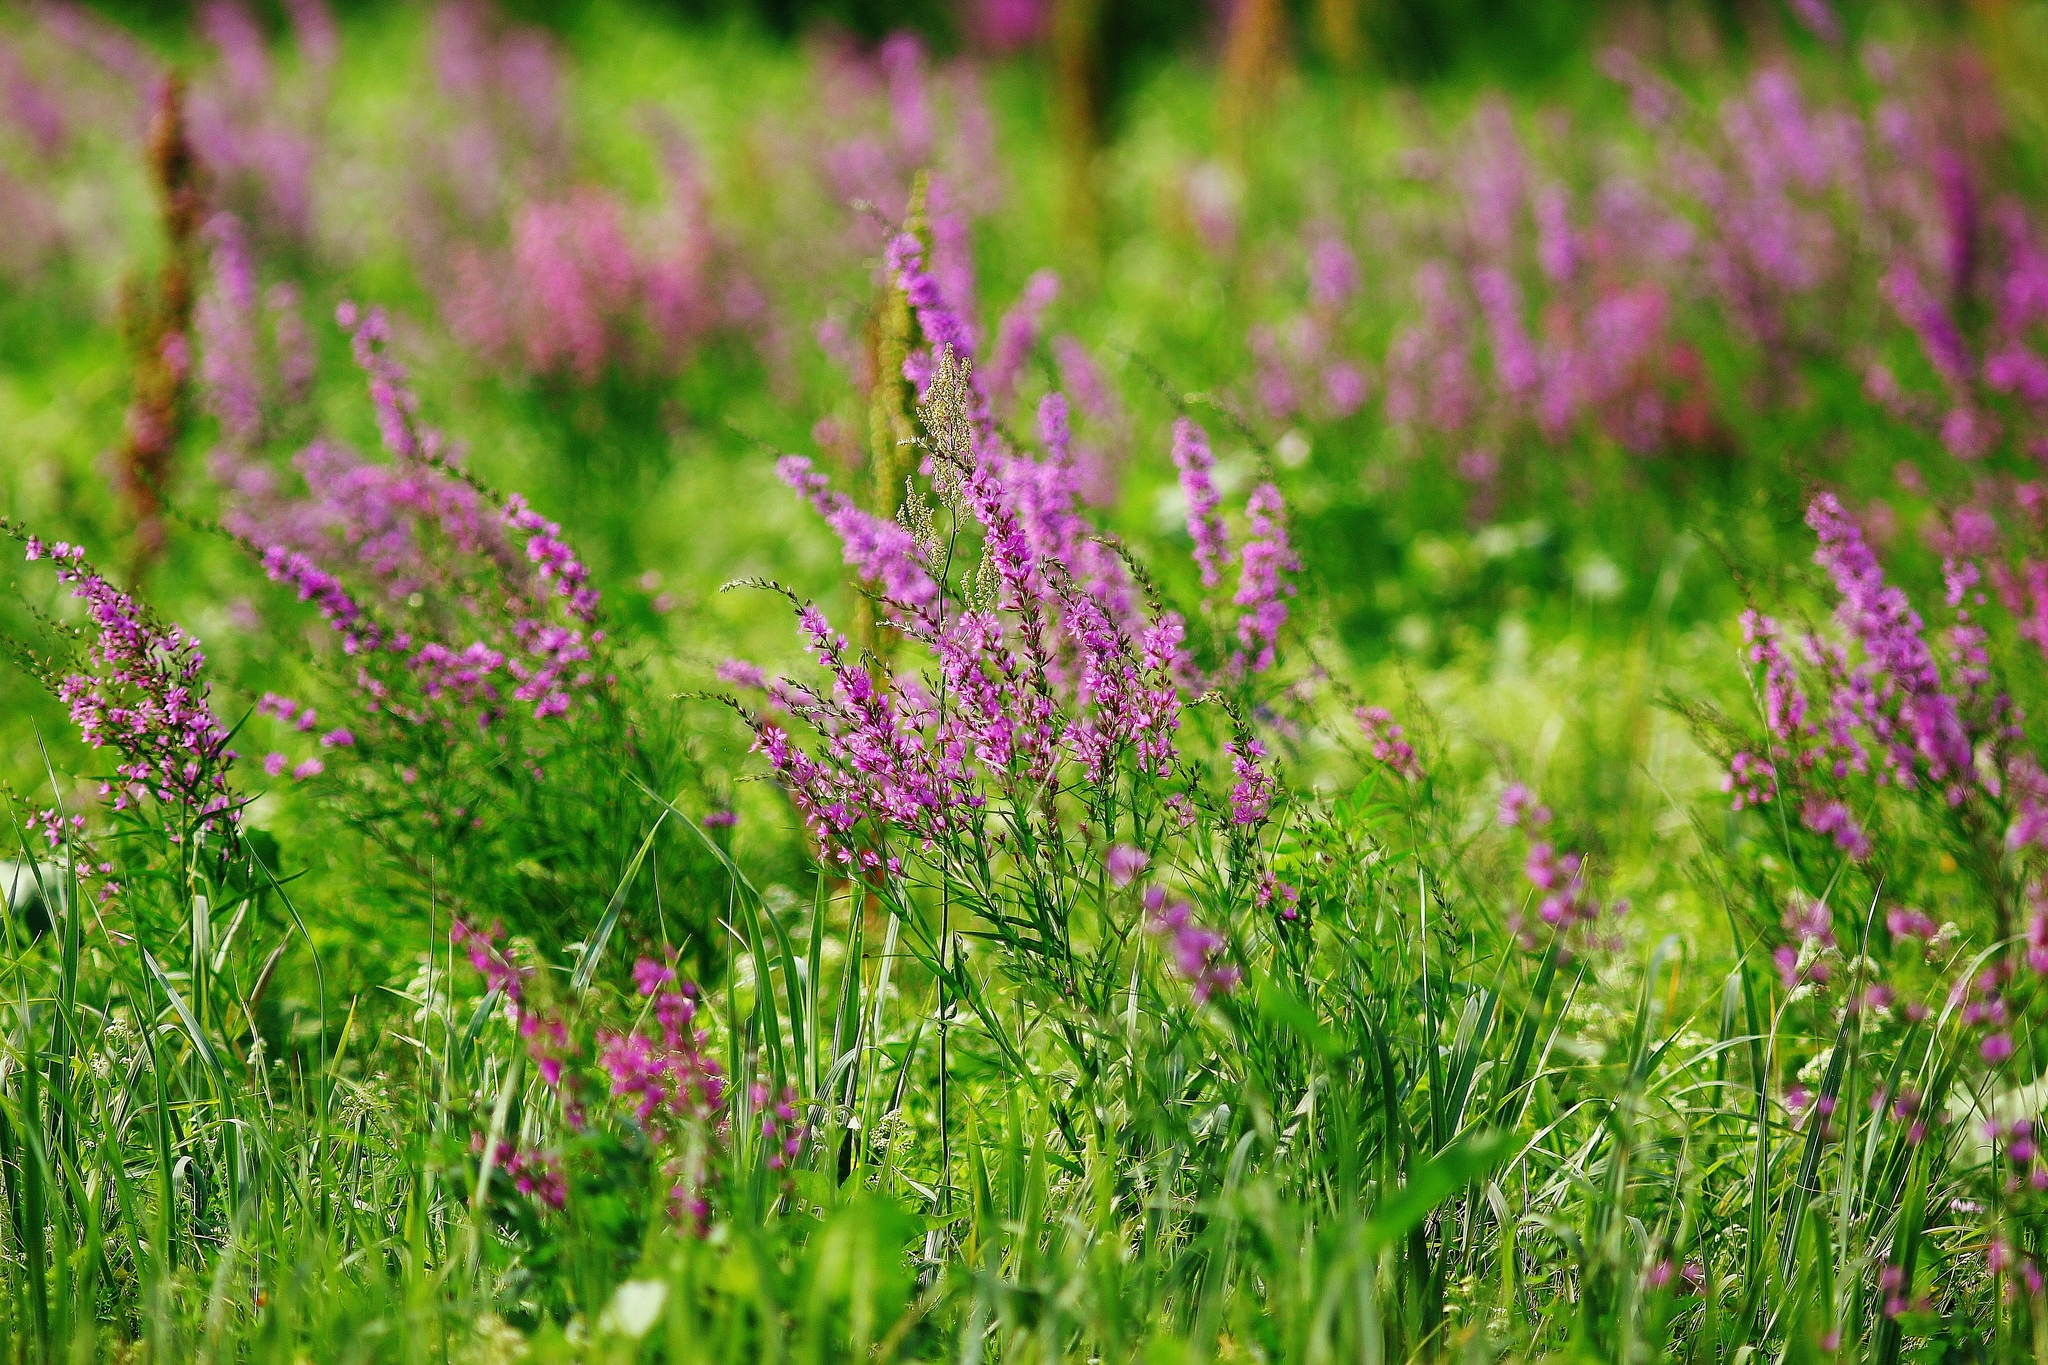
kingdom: Plantae
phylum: Tracheophyta
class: Magnoliopsida
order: Myrtales
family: Lythraceae
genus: Lythrum
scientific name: Lythrum virgatum
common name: European wand loosestrife
